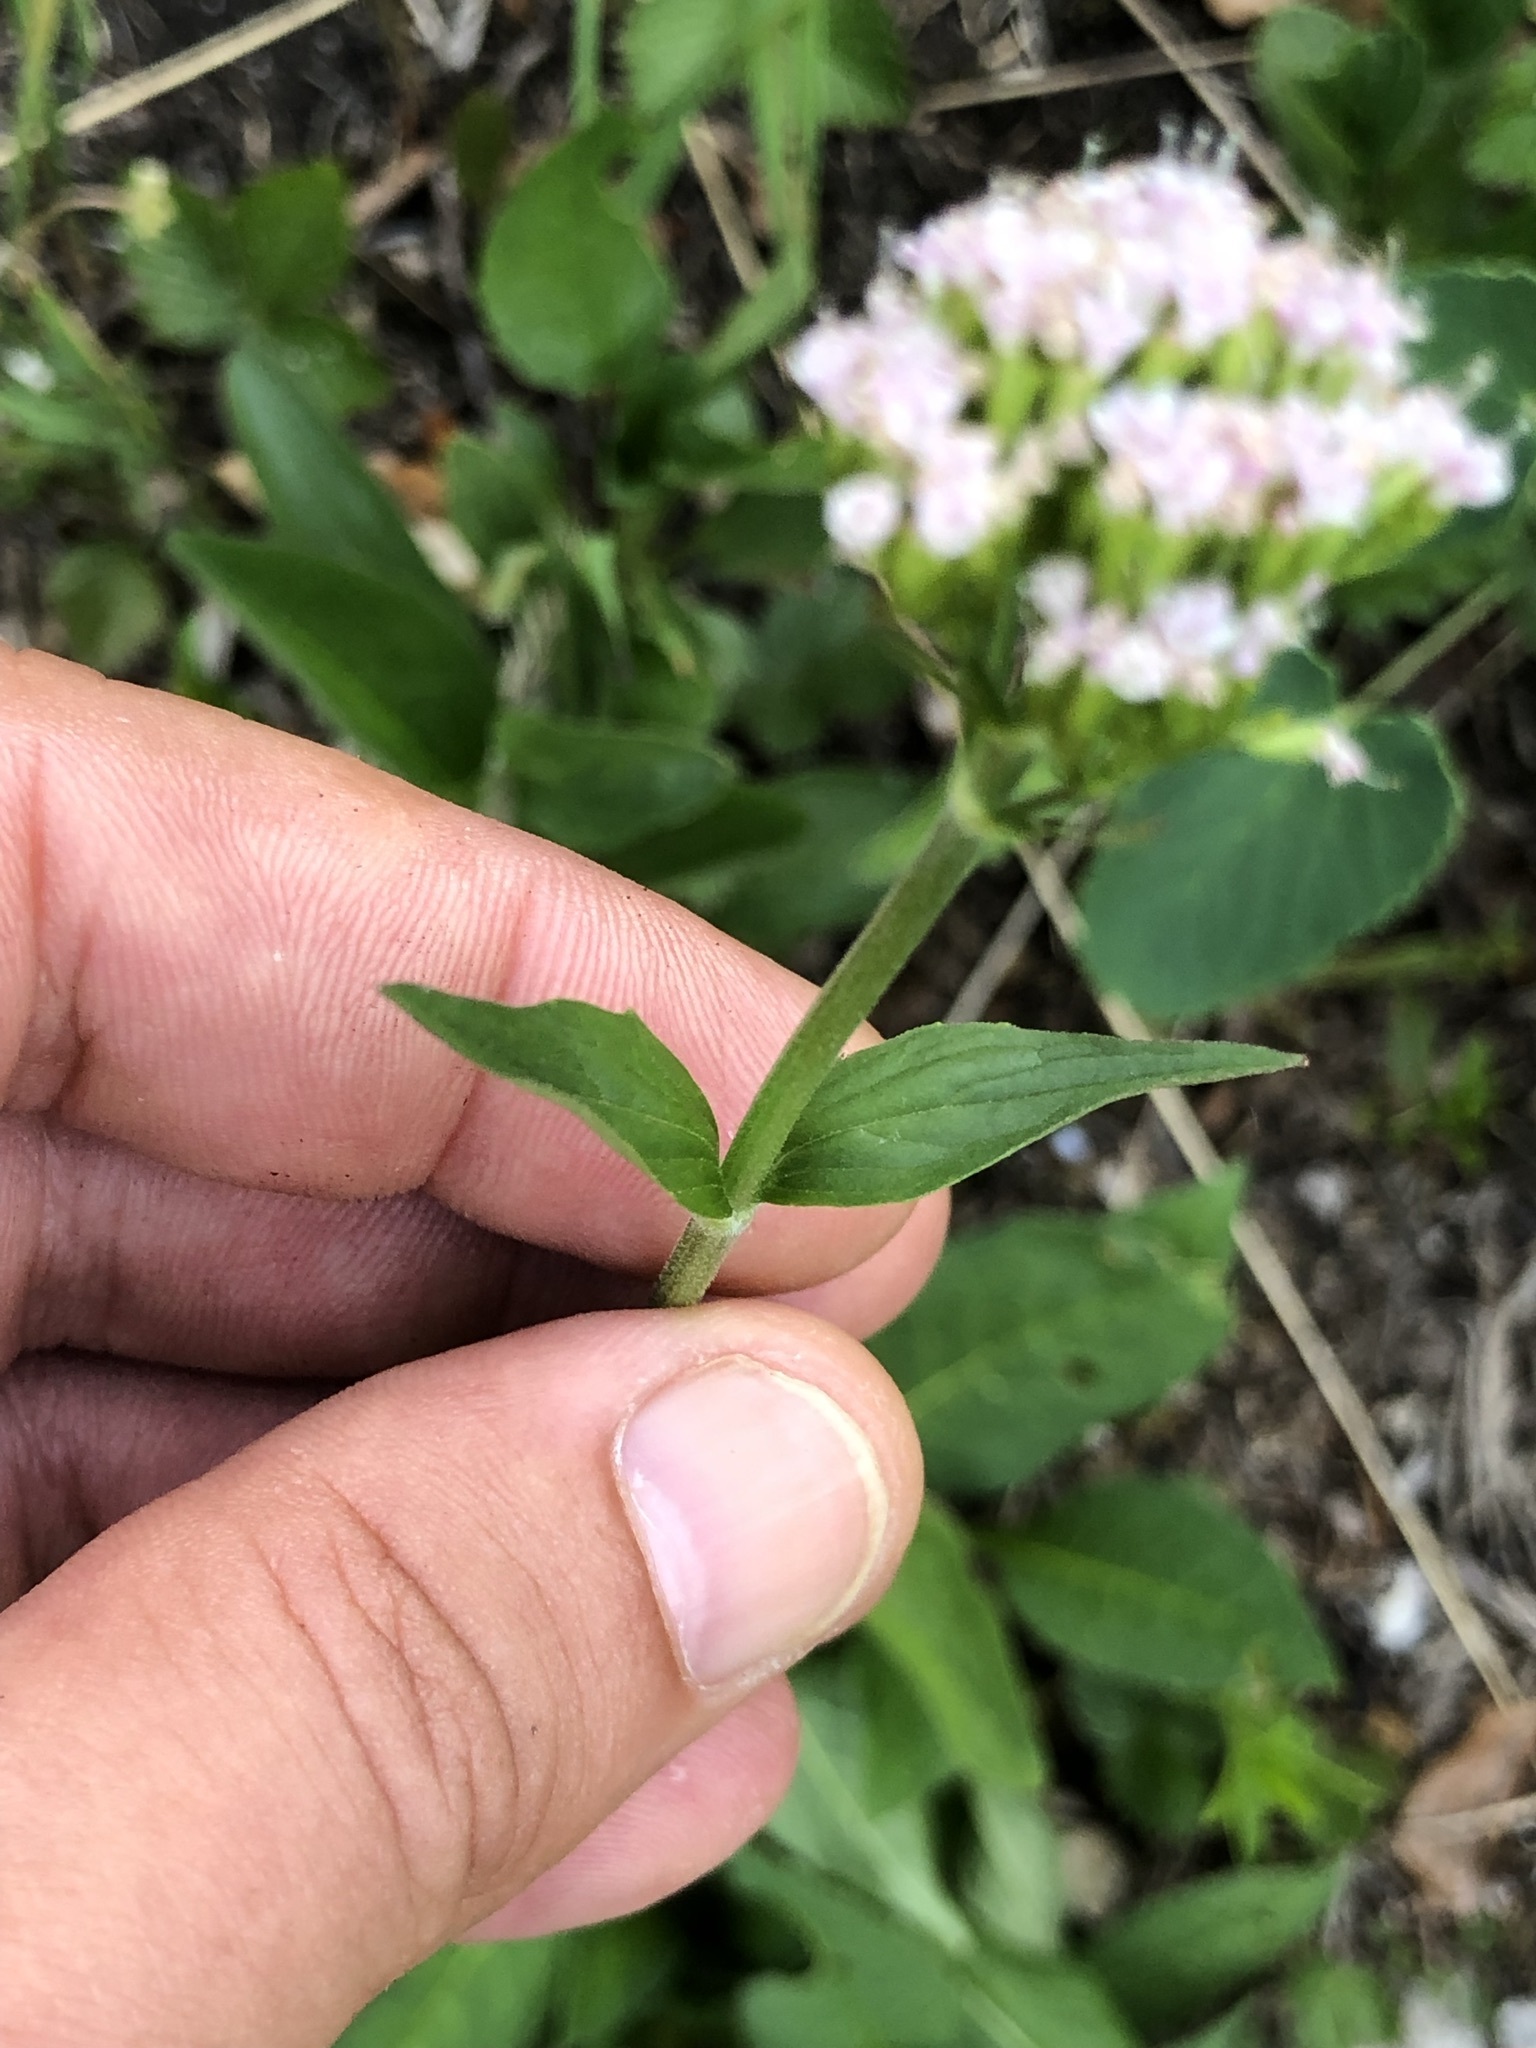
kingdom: Plantae
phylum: Tracheophyta
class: Magnoliopsida
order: Dipsacales
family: Caprifoliaceae
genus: Valeriana
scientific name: Valeriana montana
